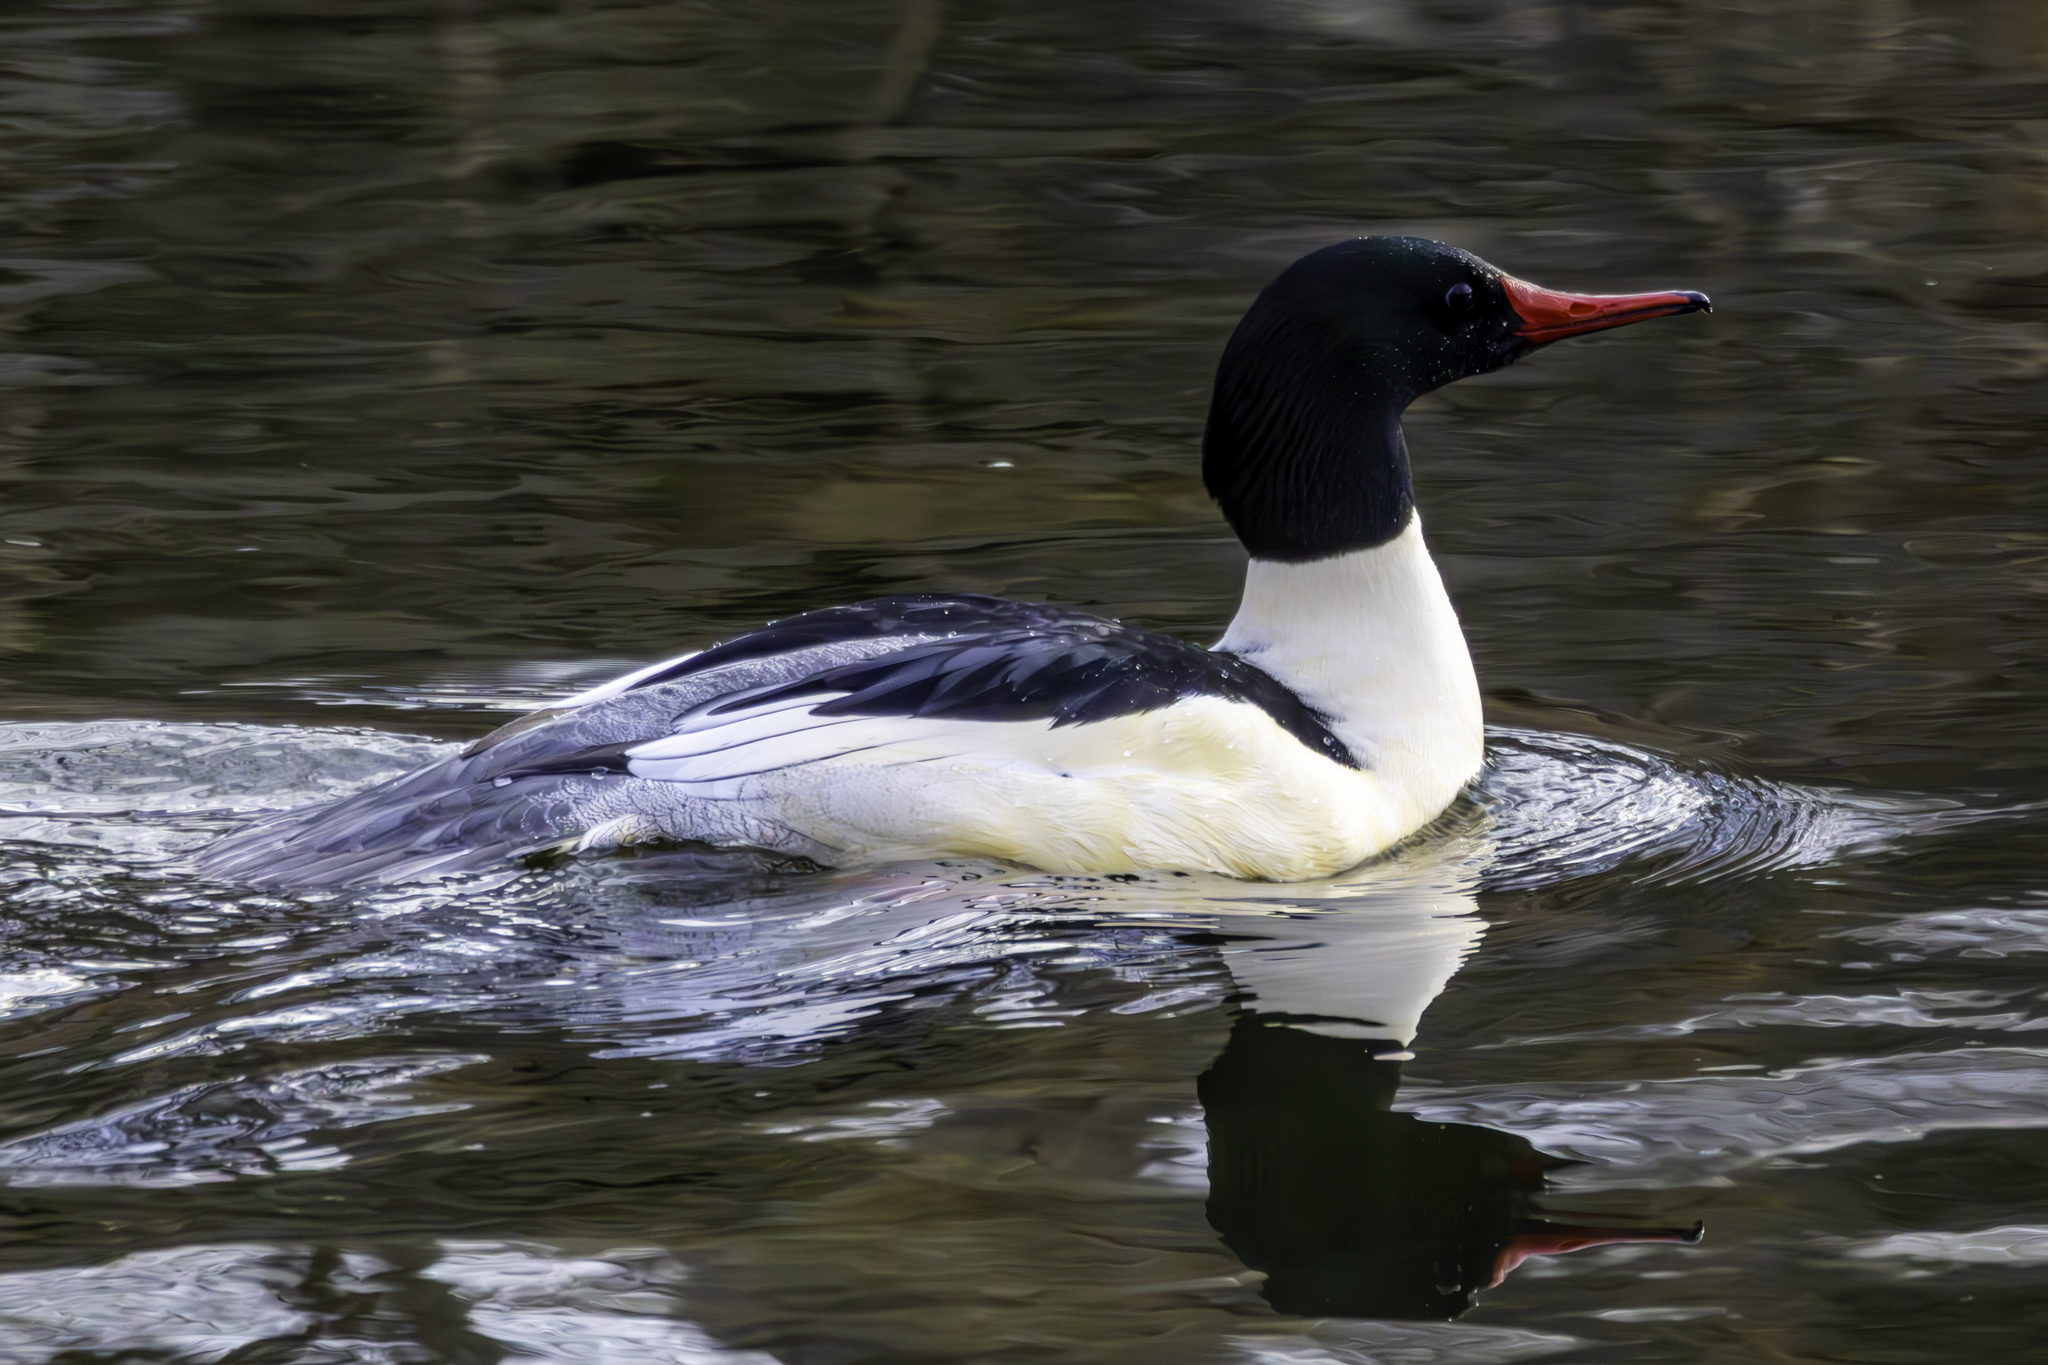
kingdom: Animalia
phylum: Chordata
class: Aves
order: Anseriformes
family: Anatidae
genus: Mergus
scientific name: Mergus merganser
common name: Common merganser
